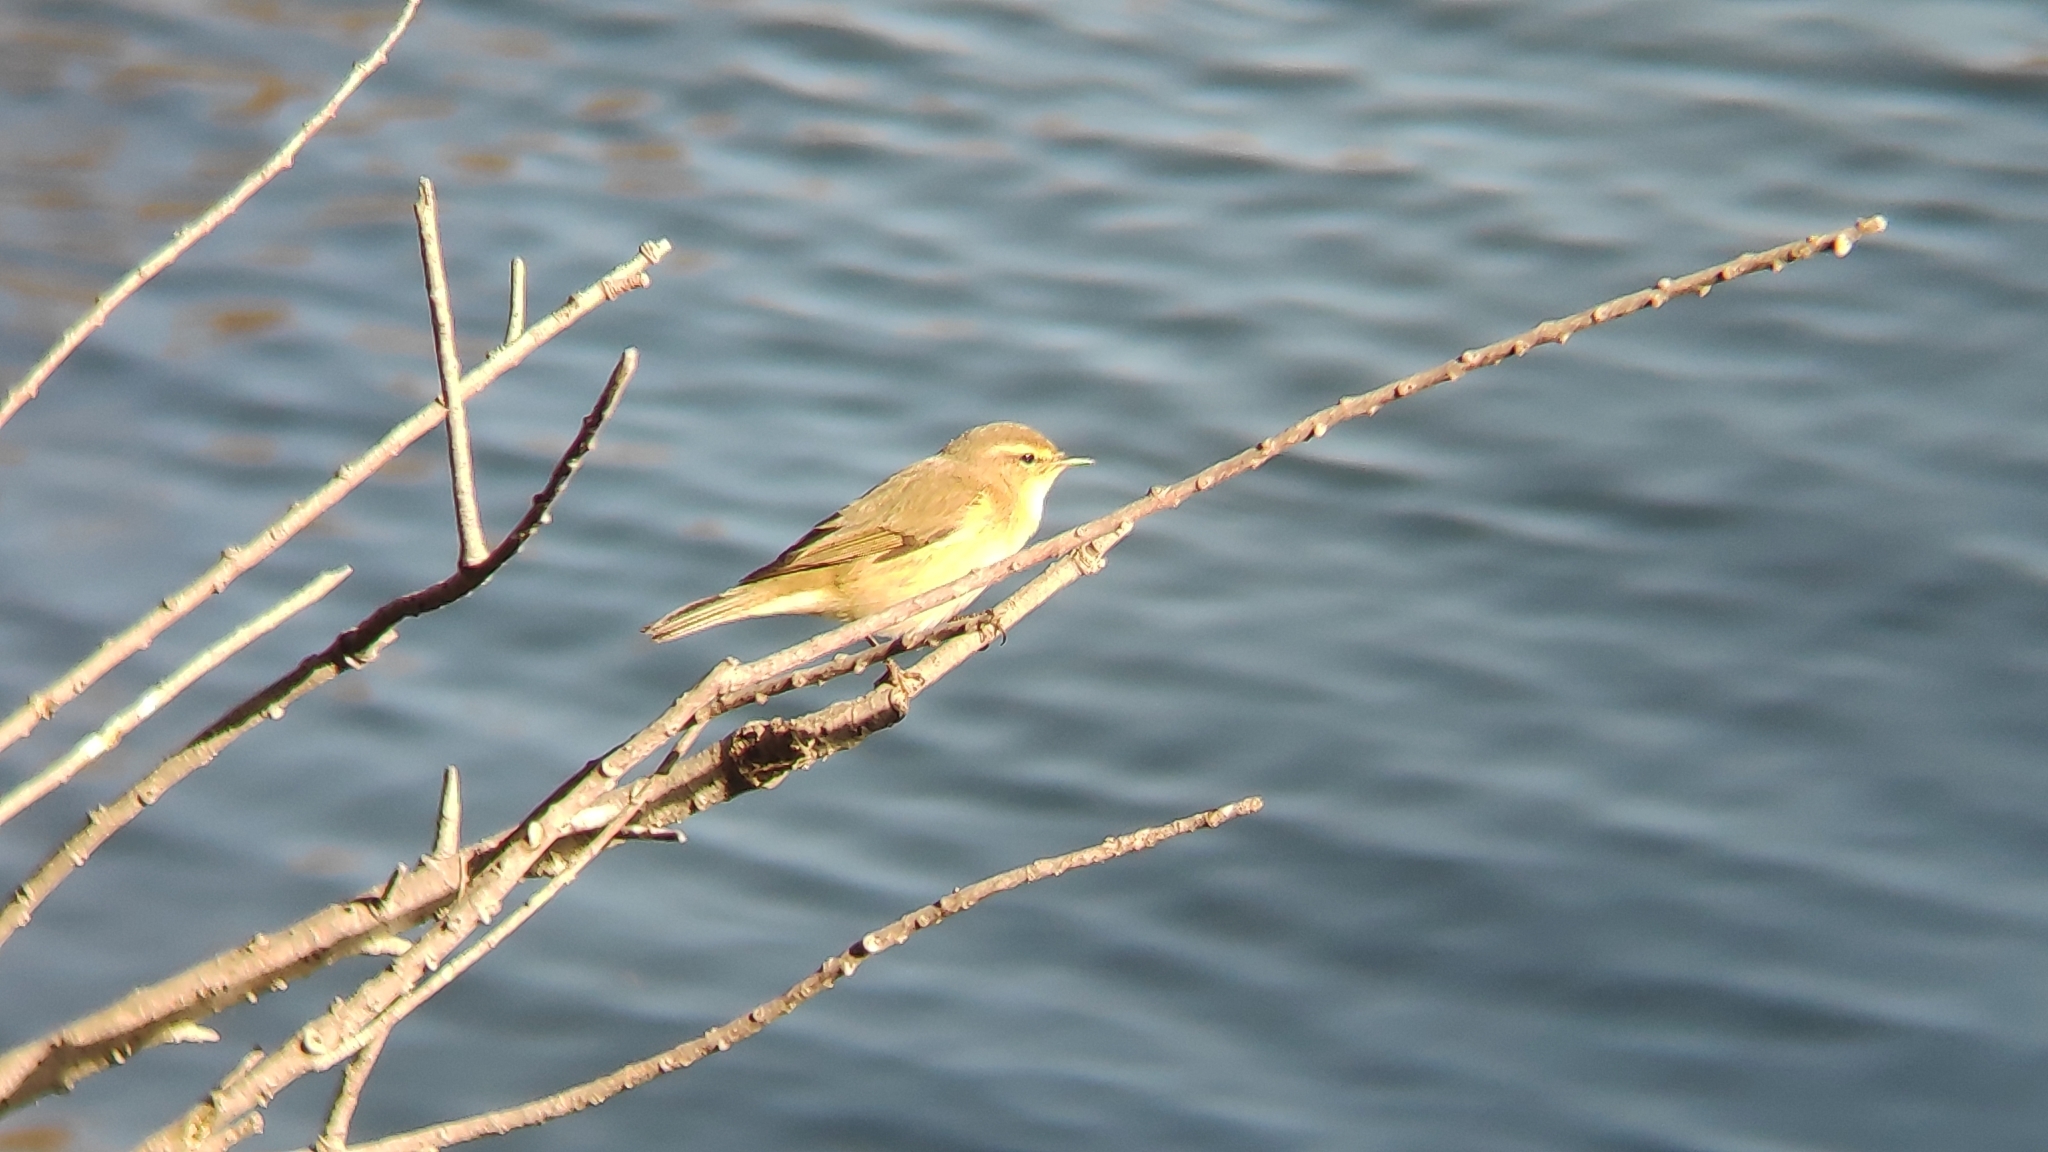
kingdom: Animalia
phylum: Chordata
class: Aves
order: Passeriformes
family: Phylloscopidae
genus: Phylloscopus
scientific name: Phylloscopus collybita
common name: Common chiffchaff
